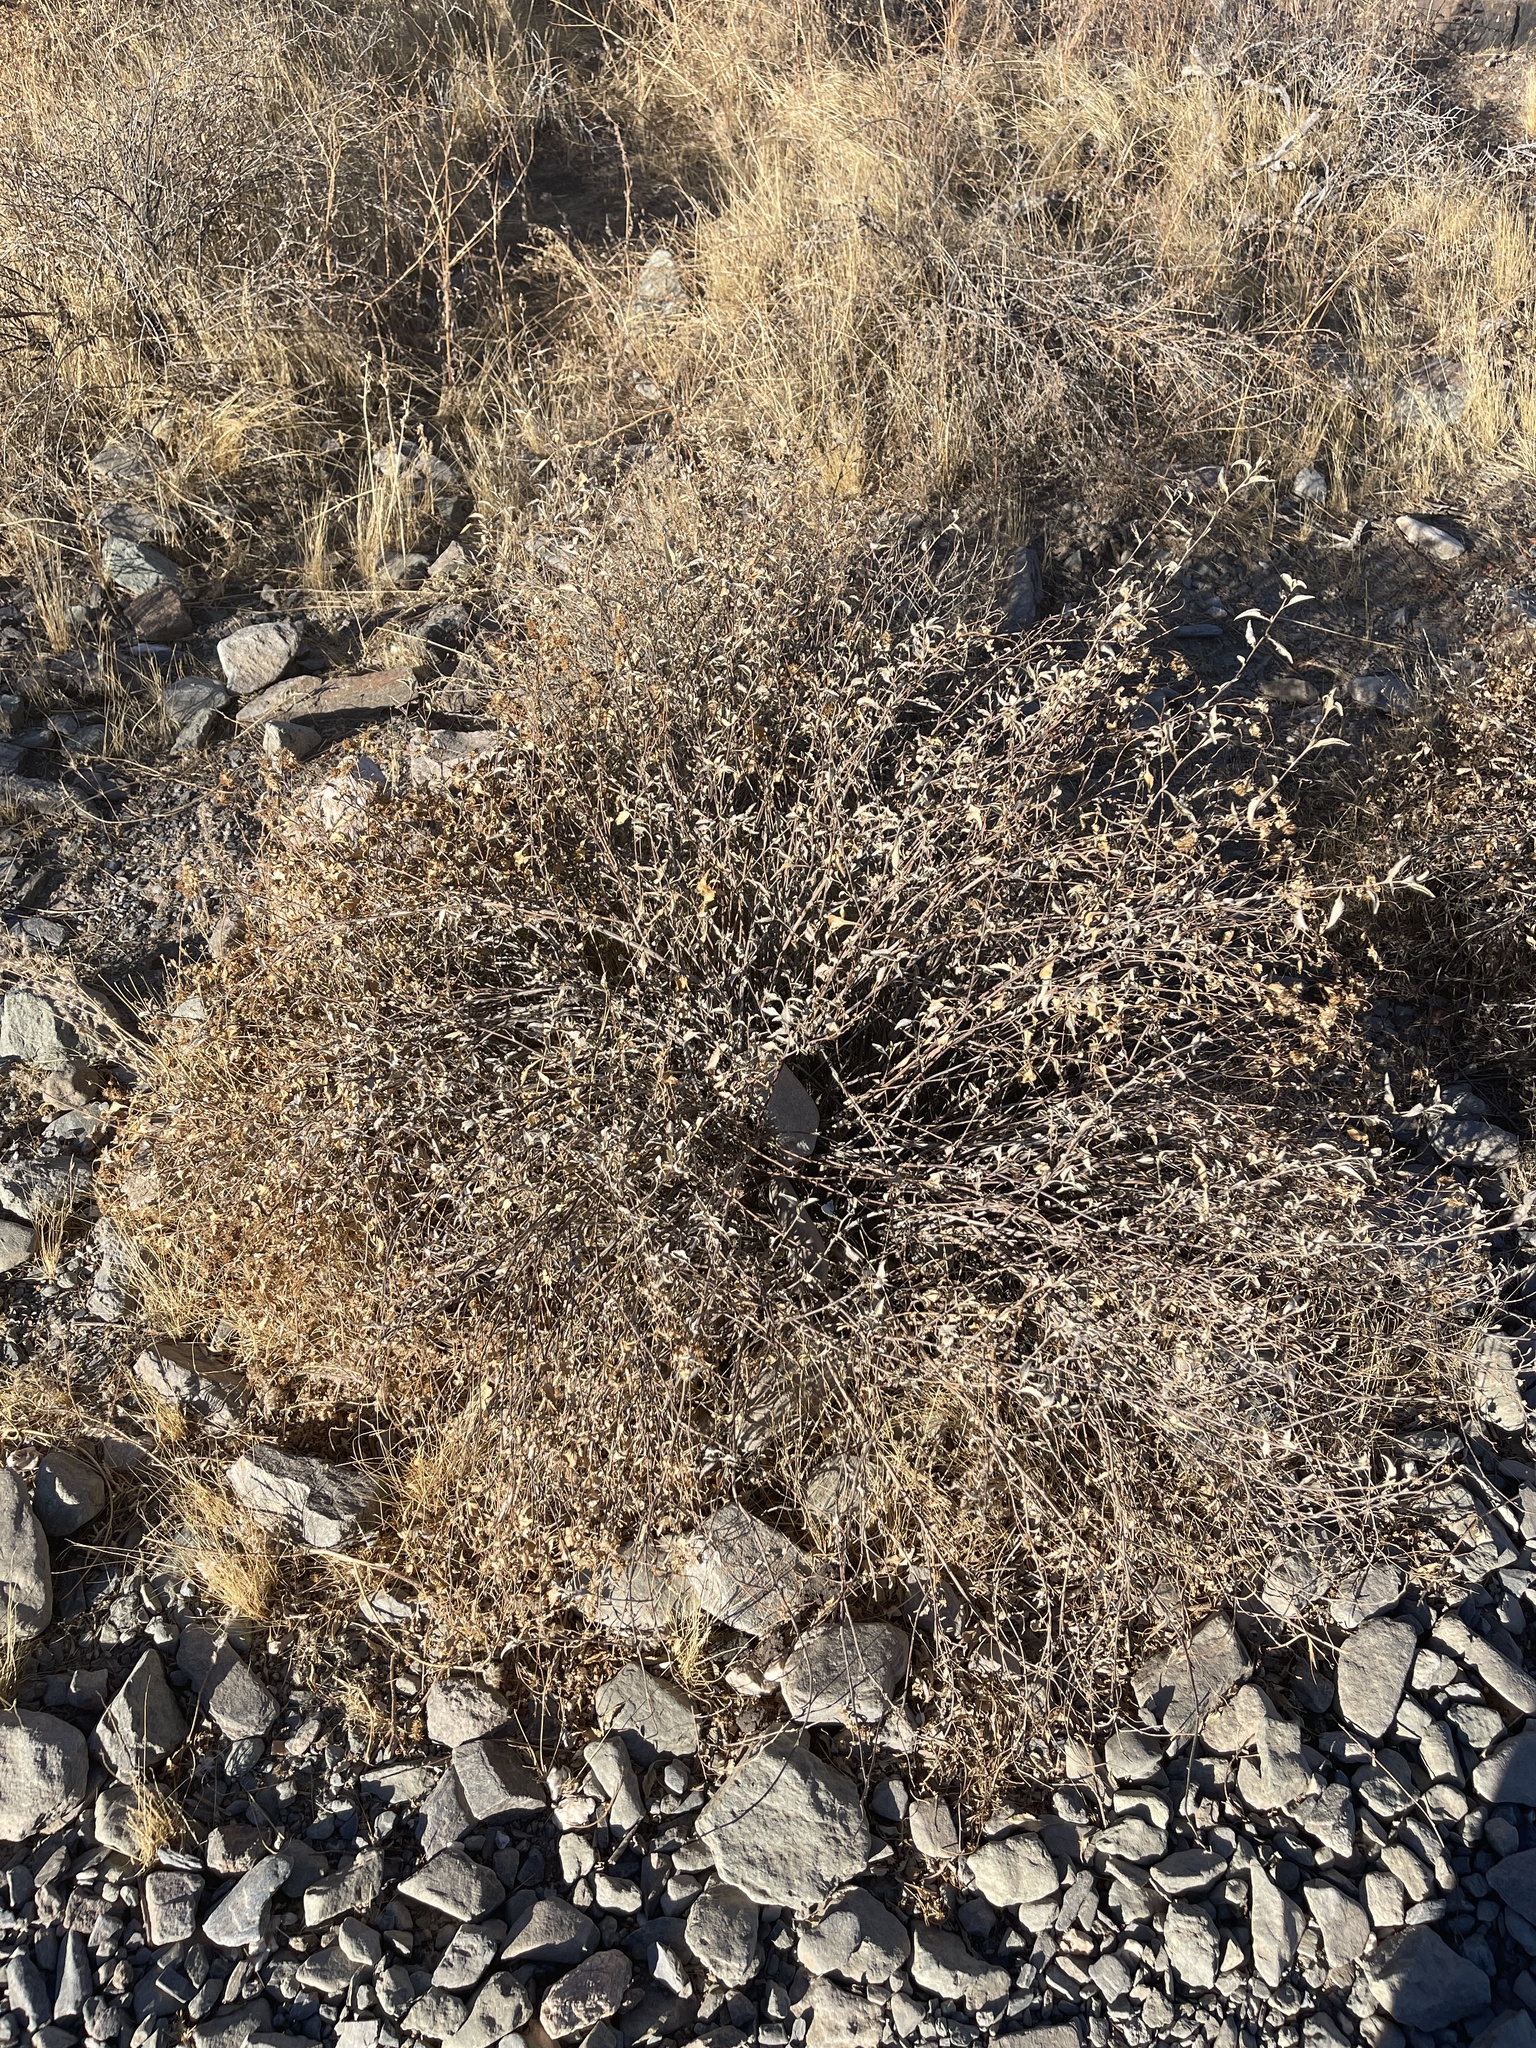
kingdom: Plantae
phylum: Tracheophyta
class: Magnoliopsida
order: Asterales
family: Asteraceae
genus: Ambrosia
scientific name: Ambrosia deltoidea
